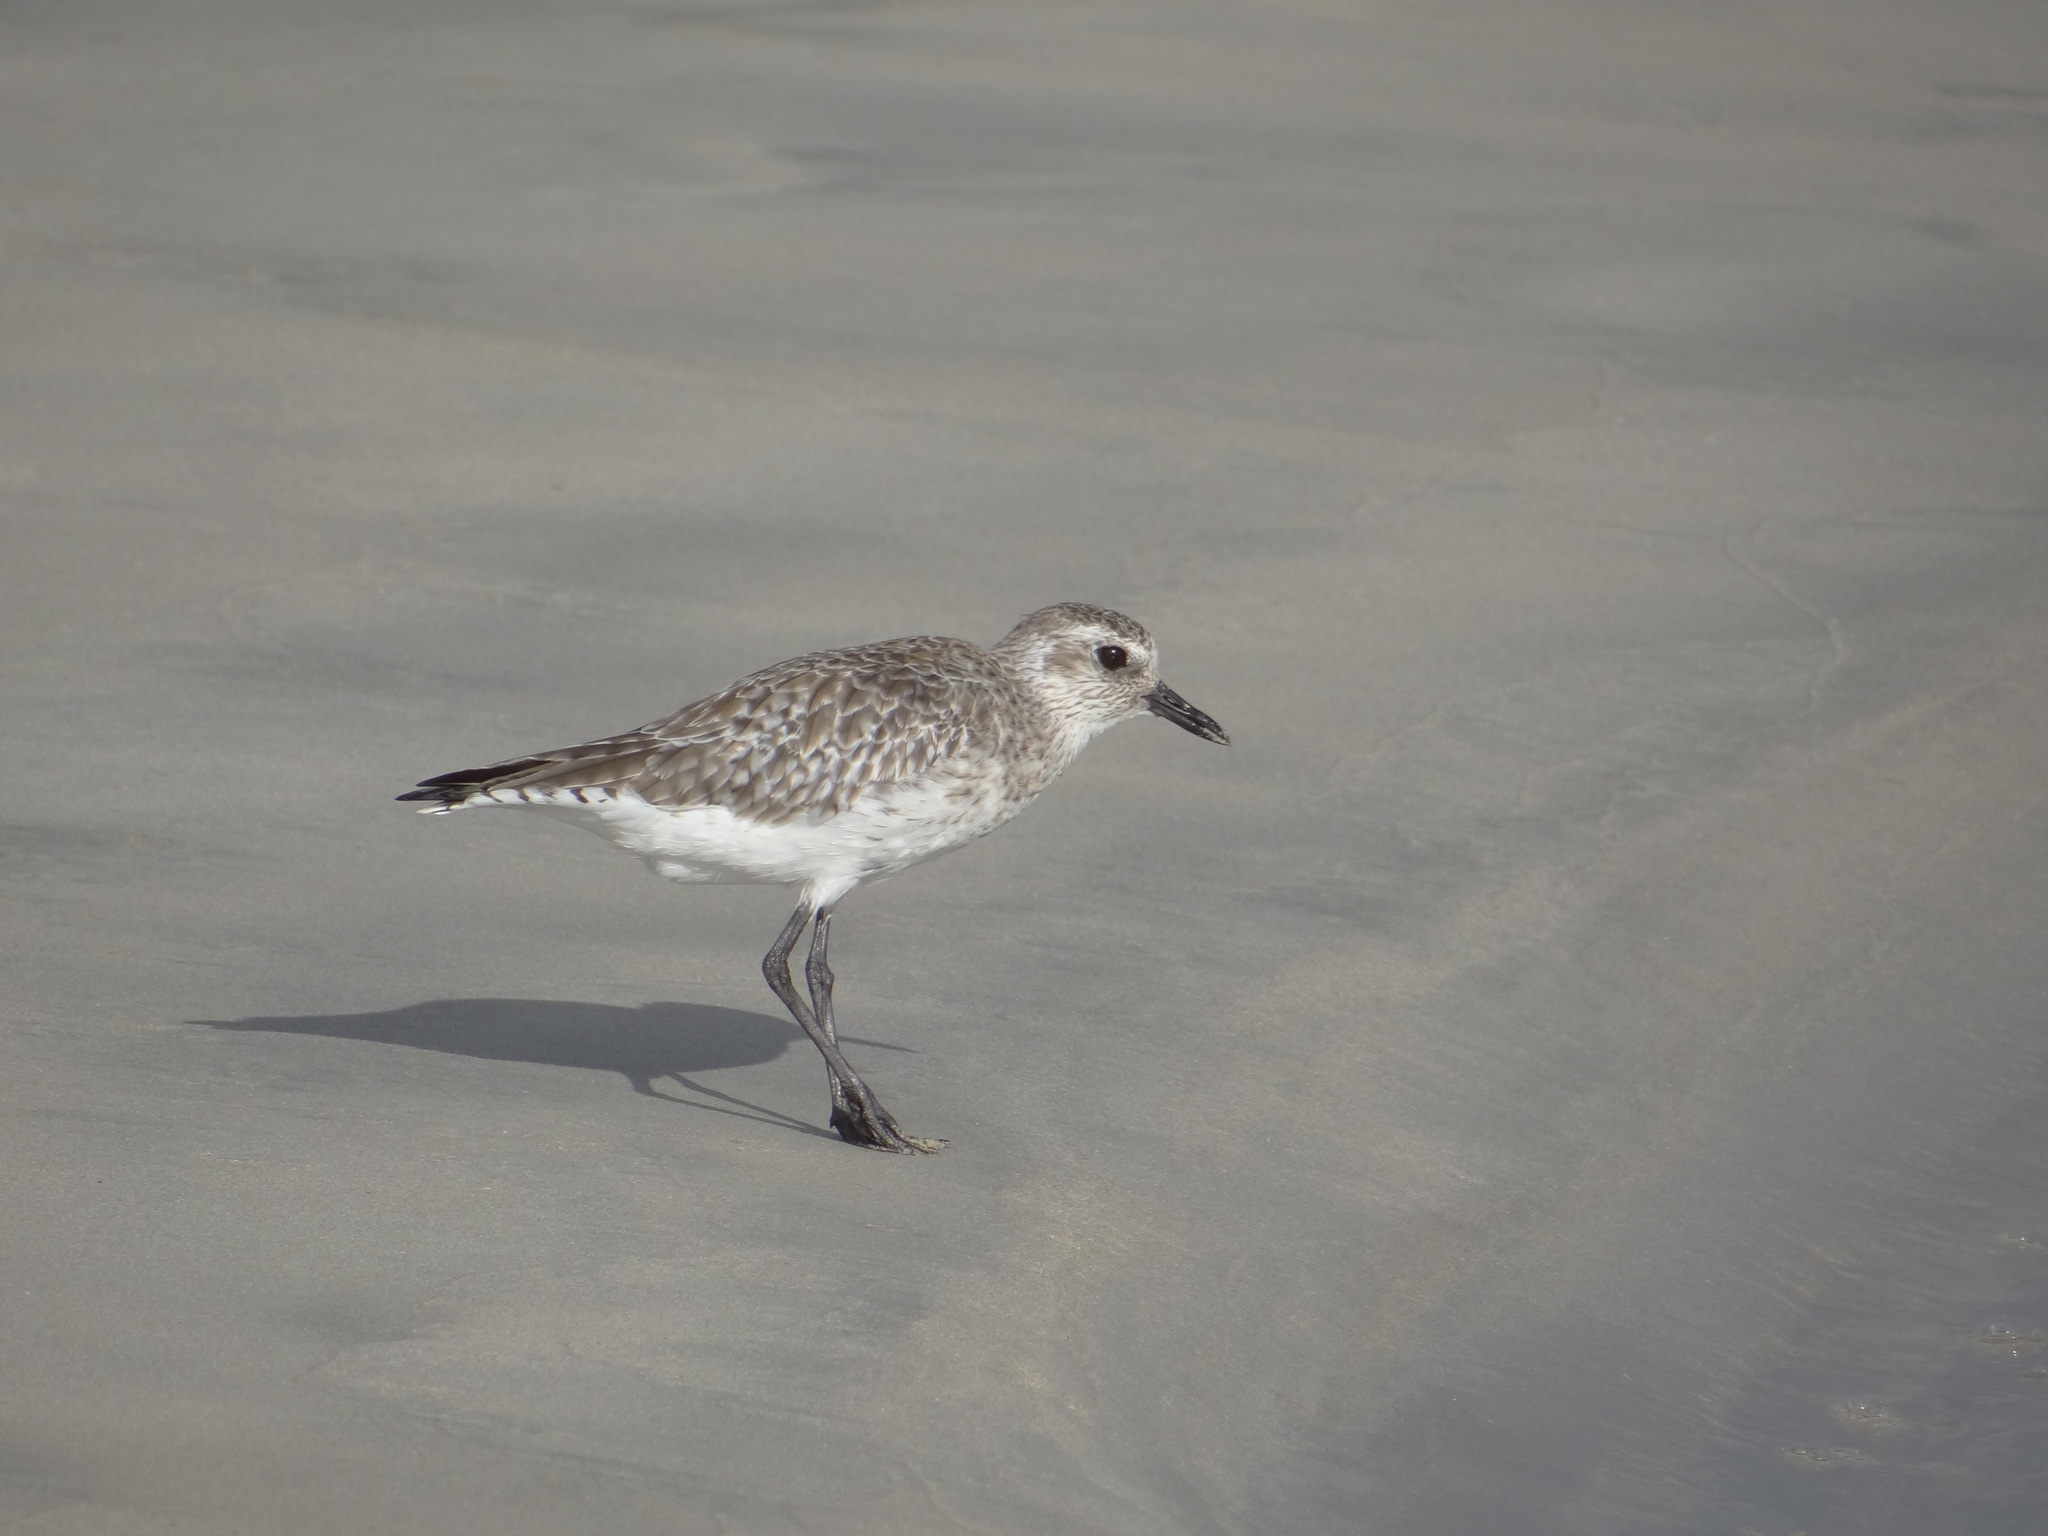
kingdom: Animalia
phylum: Chordata
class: Aves
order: Charadriiformes
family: Charadriidae
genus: Pluvialis
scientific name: Pluvialis squatarola
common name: Grey plover
